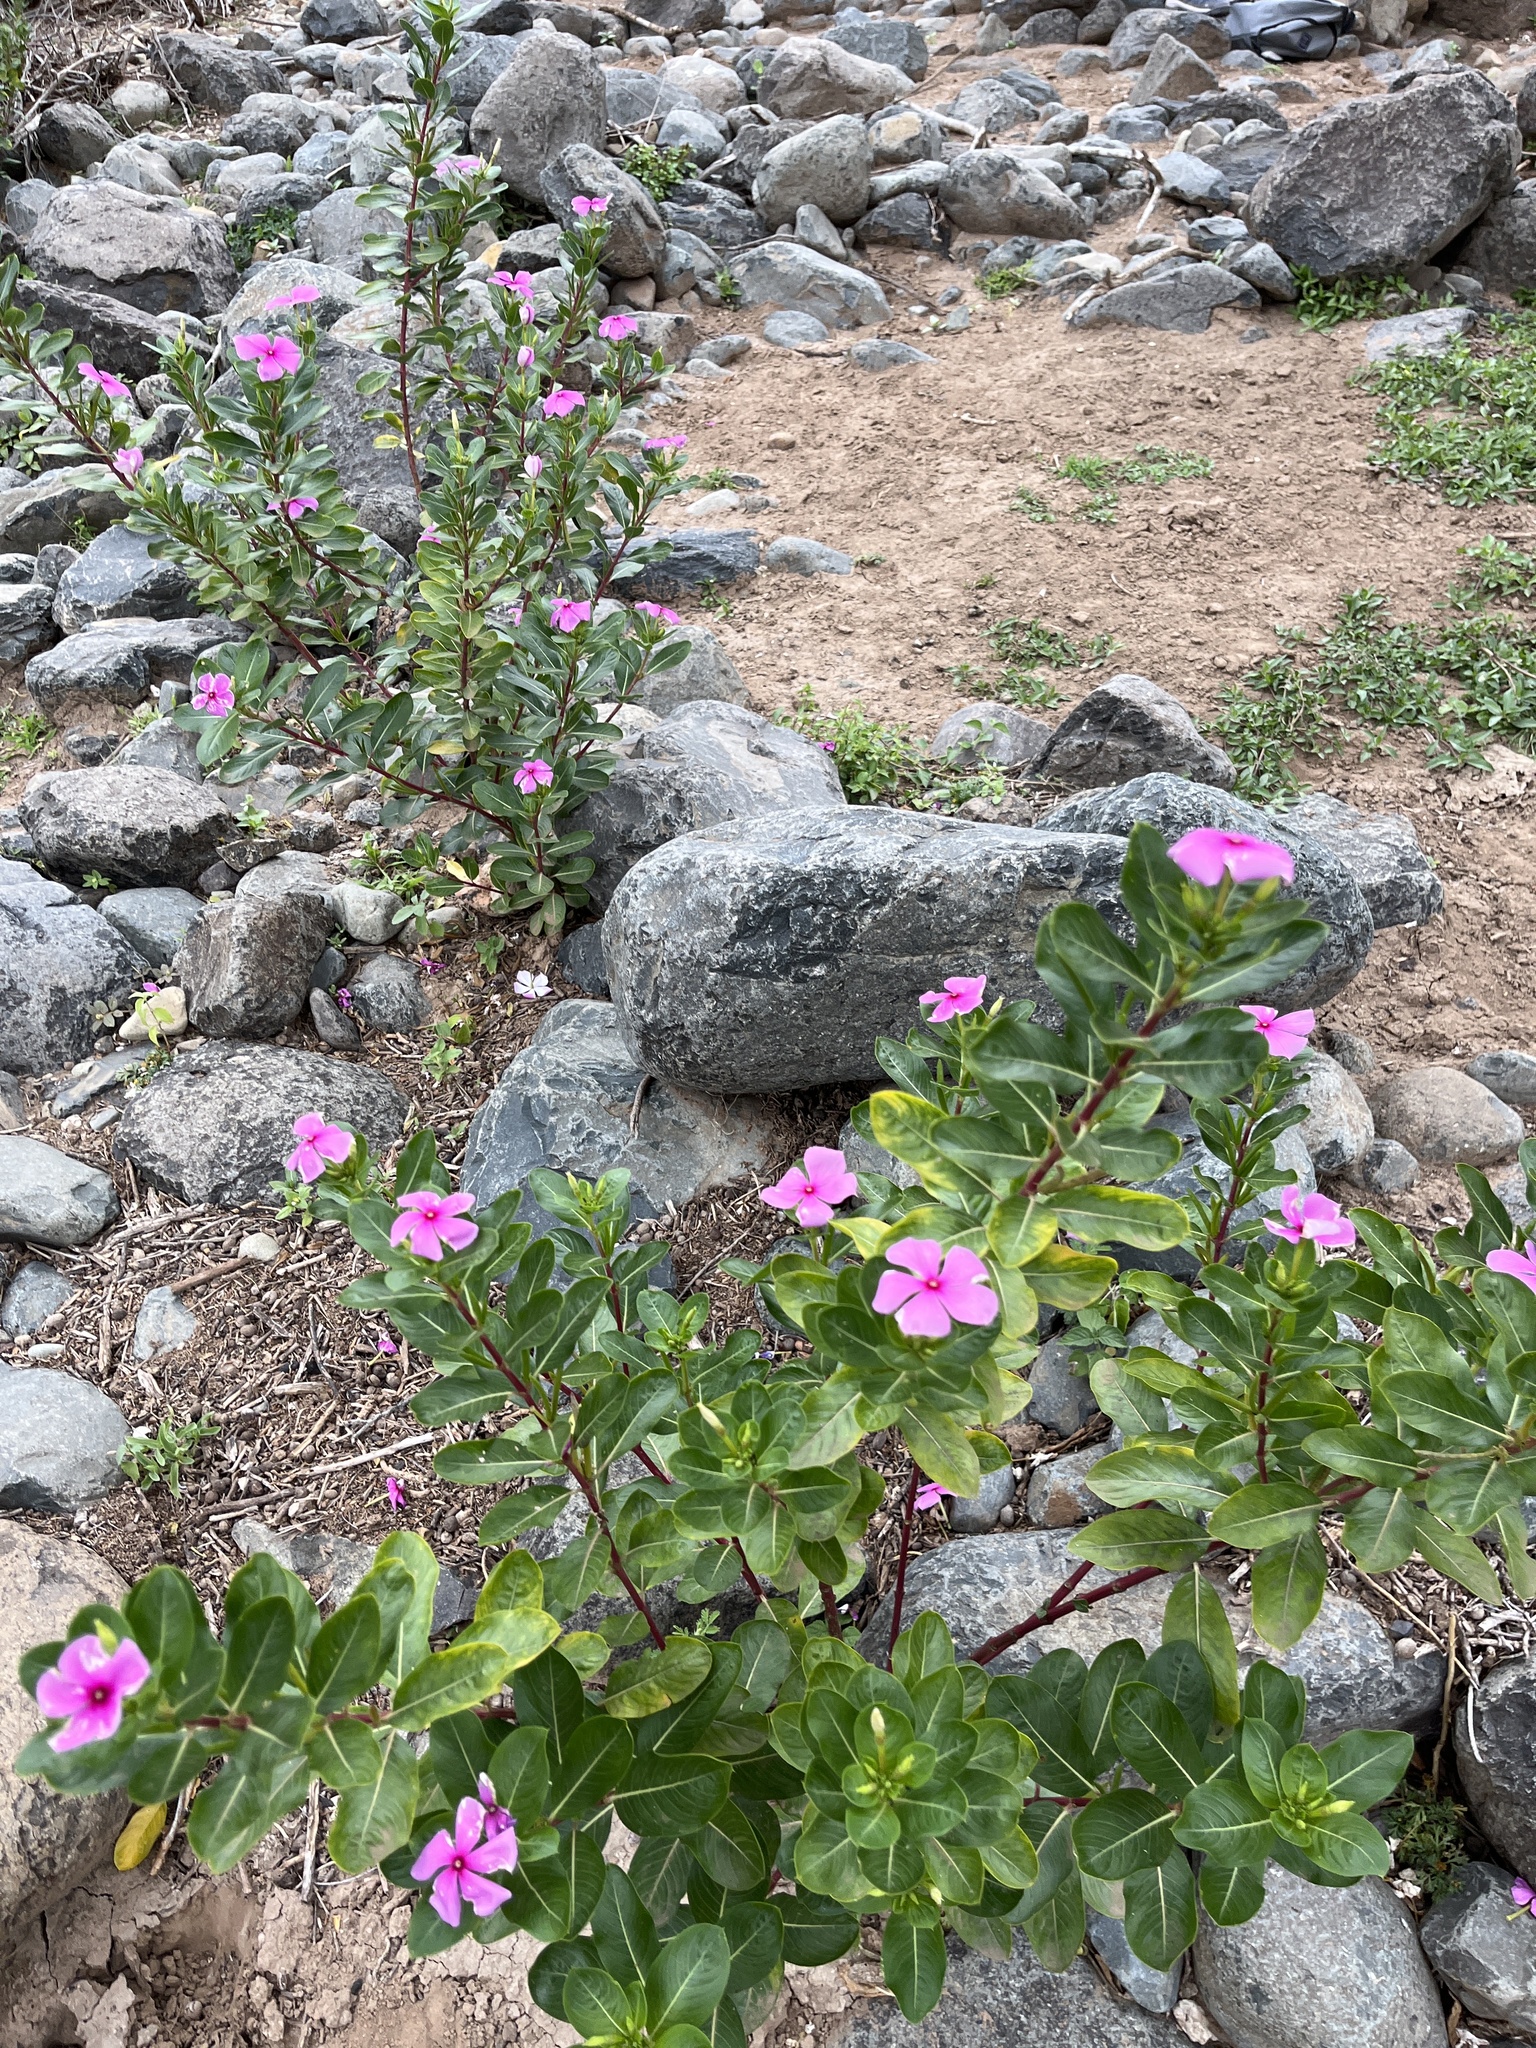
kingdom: Plantae
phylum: Tracheophyta
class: Magnoliopsida
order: Gentianales
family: Apocynaceae
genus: Catharanthus
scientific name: Catharanthus roseus
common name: Madagascar periwinkle
